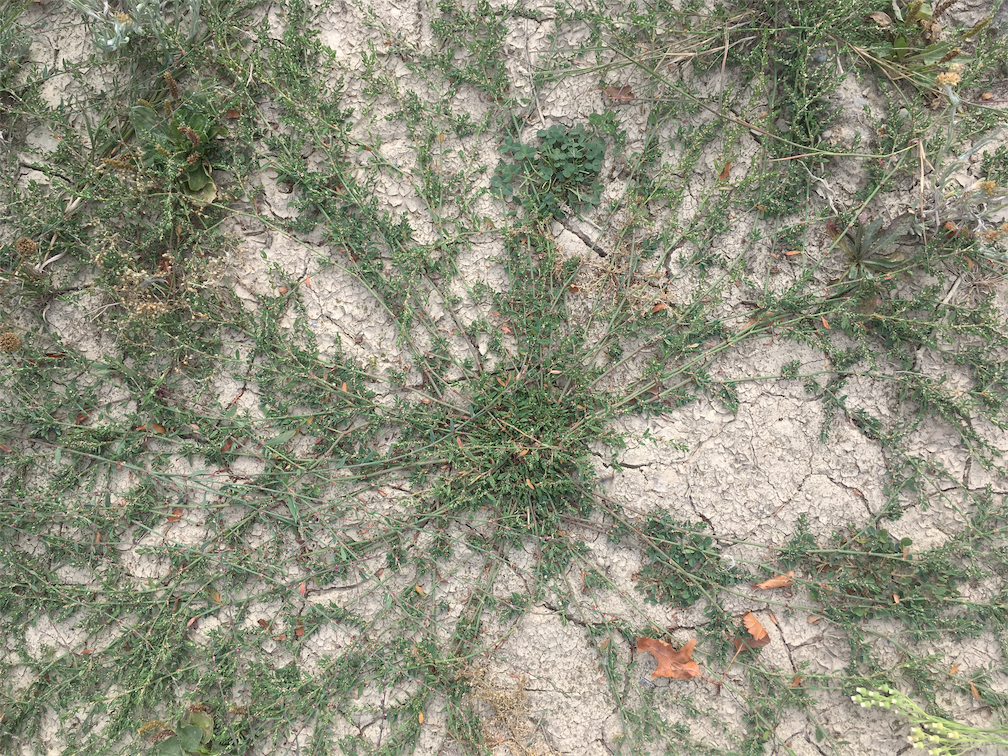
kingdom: Plantae
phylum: Tracheophyta
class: Magnoliopsida
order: Caryophyllales
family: Polygonaceae
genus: Polygonum
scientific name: Polygonum aviculare
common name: Prostrate knotweed
